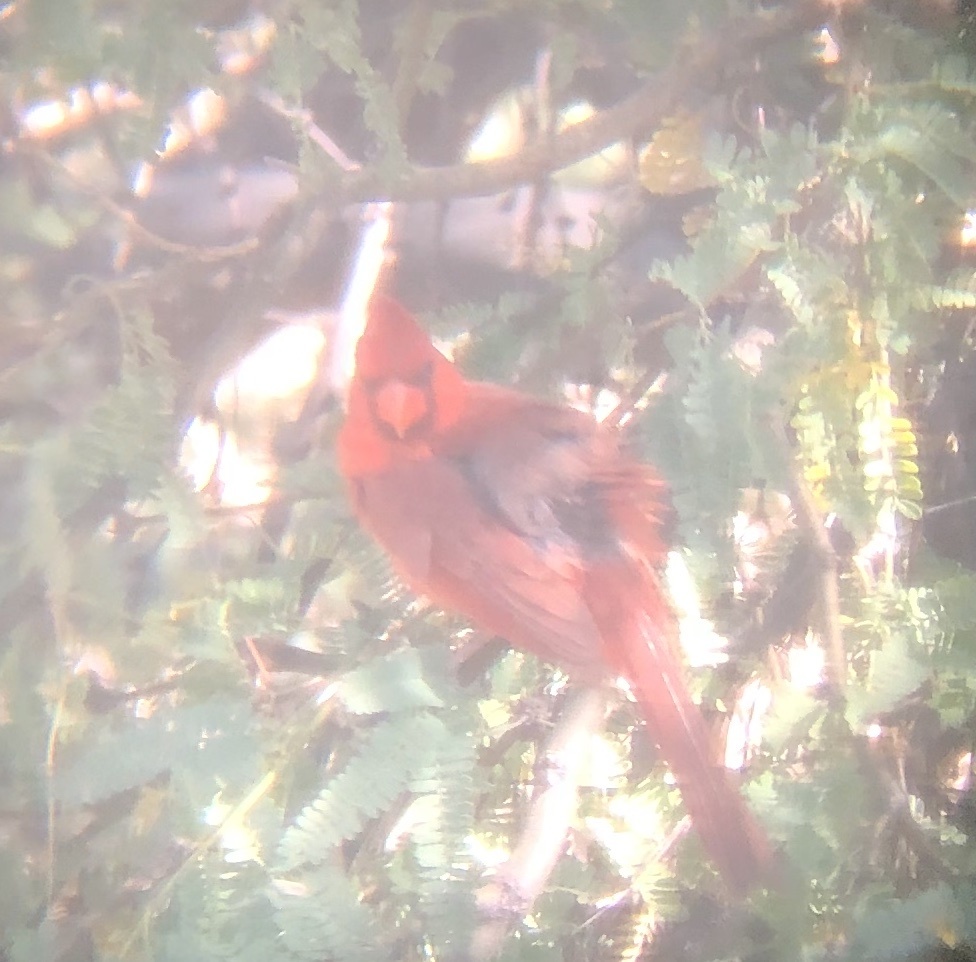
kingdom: Animalia
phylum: Chordata
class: Aves
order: Passeriformes
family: Cardinalidae
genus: Cardinalis
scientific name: Cardinalis cardinalis
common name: Northern cardinal
